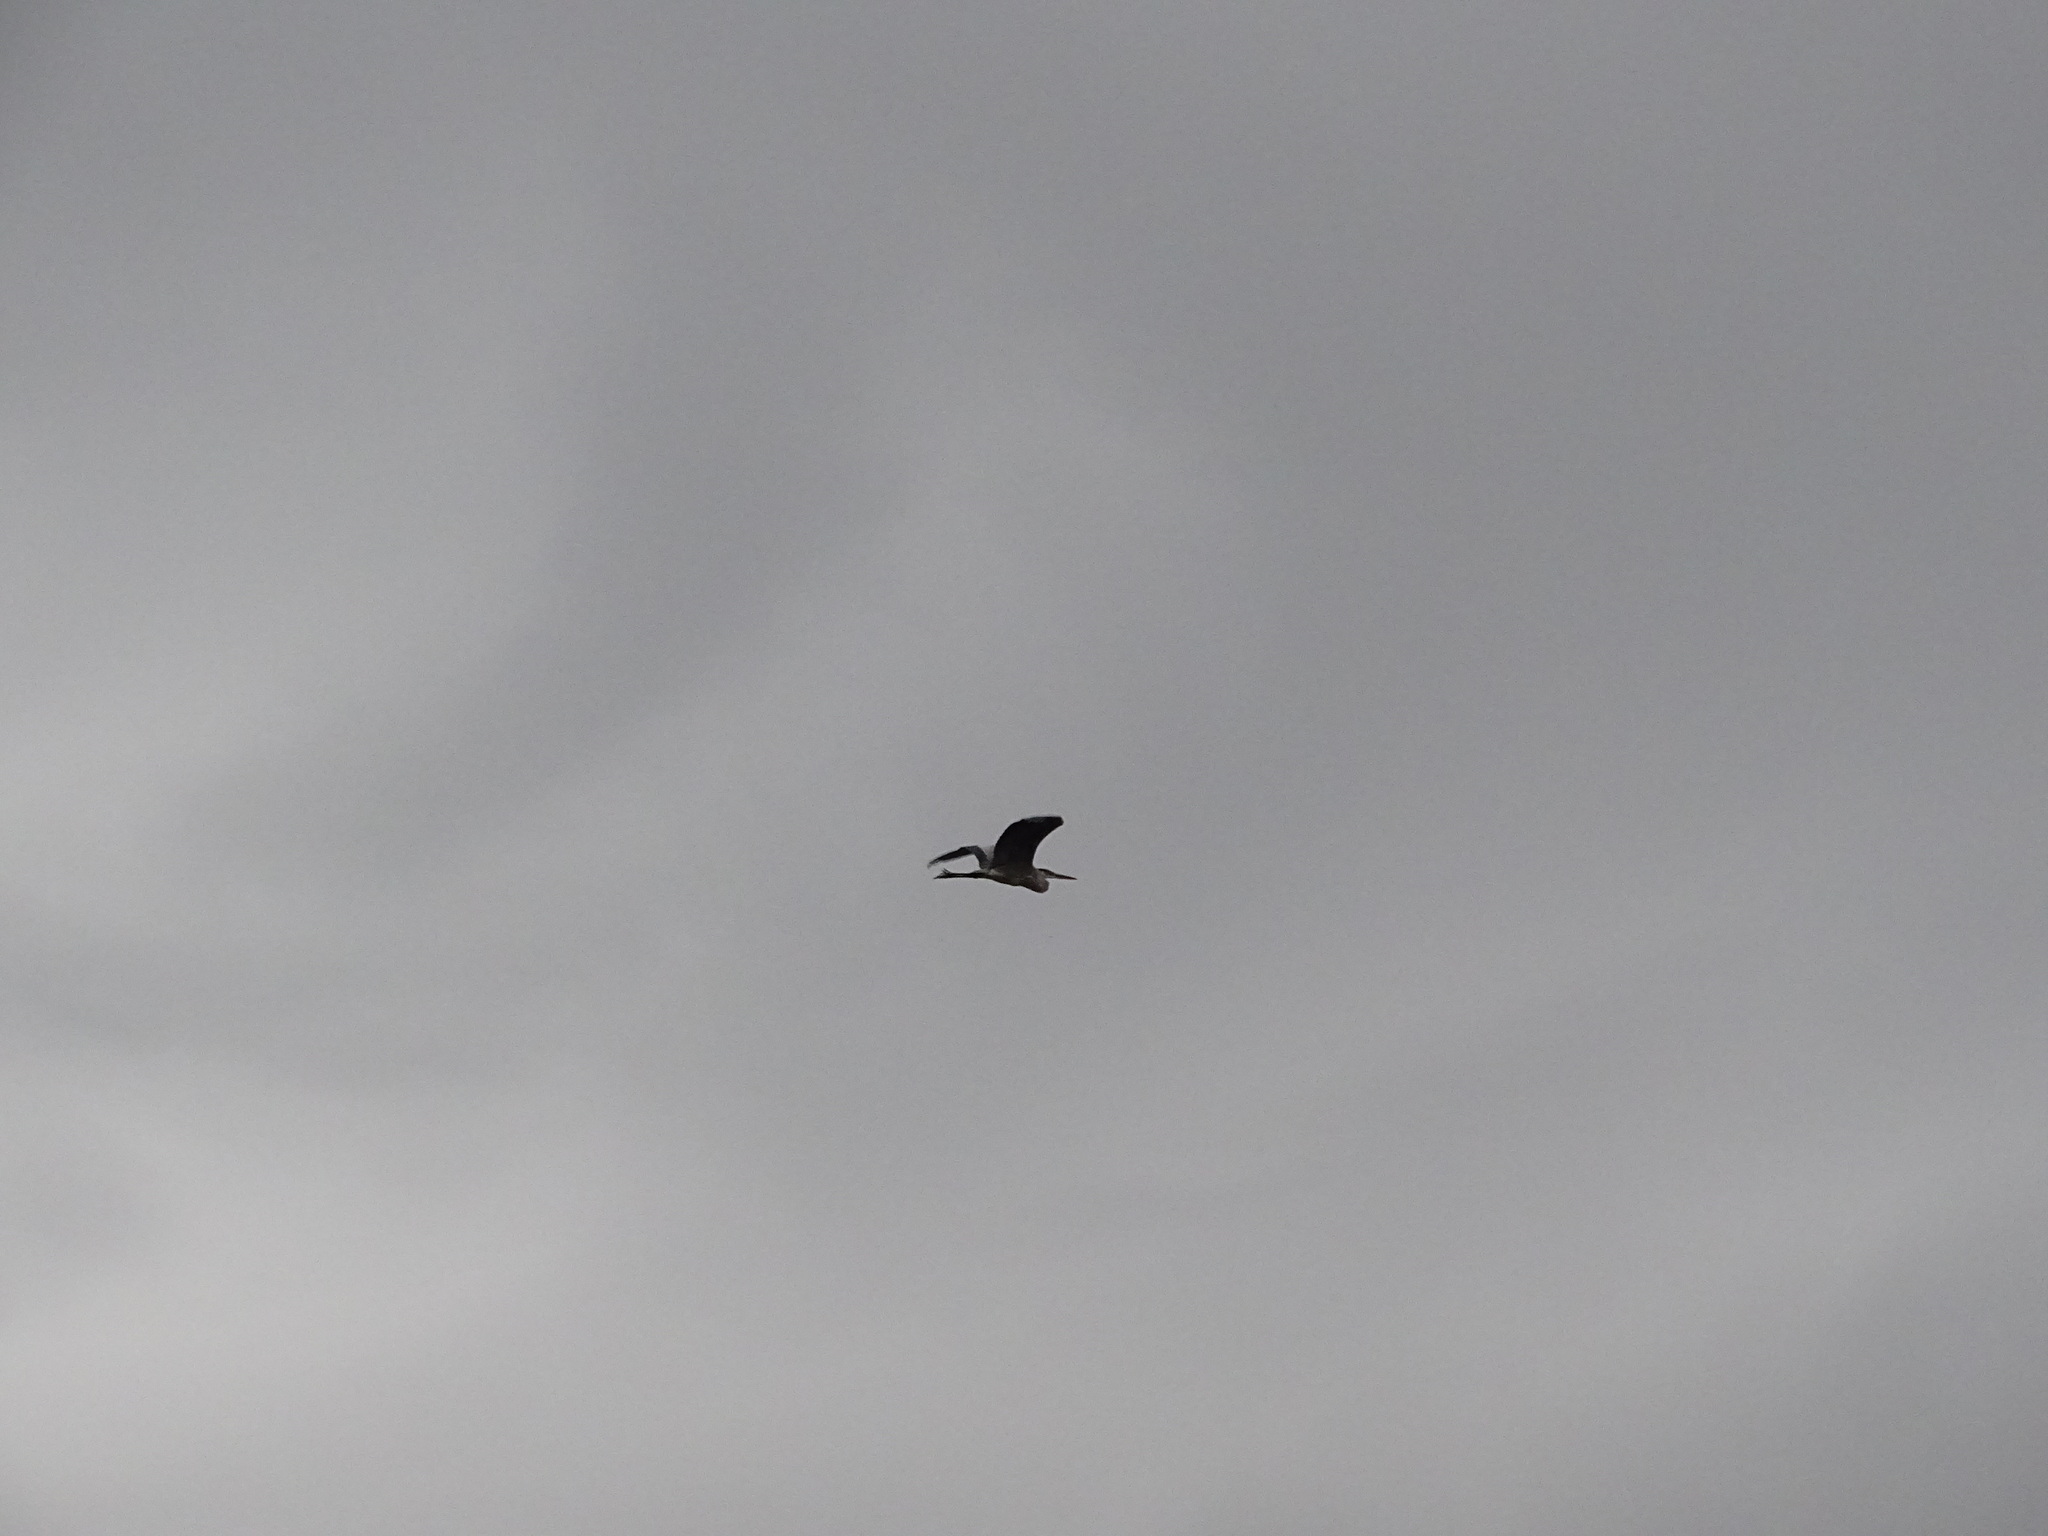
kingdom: Animalia
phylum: Chordata
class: Aves
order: Pelecaniformes
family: Ardeidae
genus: Ardea
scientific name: Ardea herodias
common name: Great blue heron
